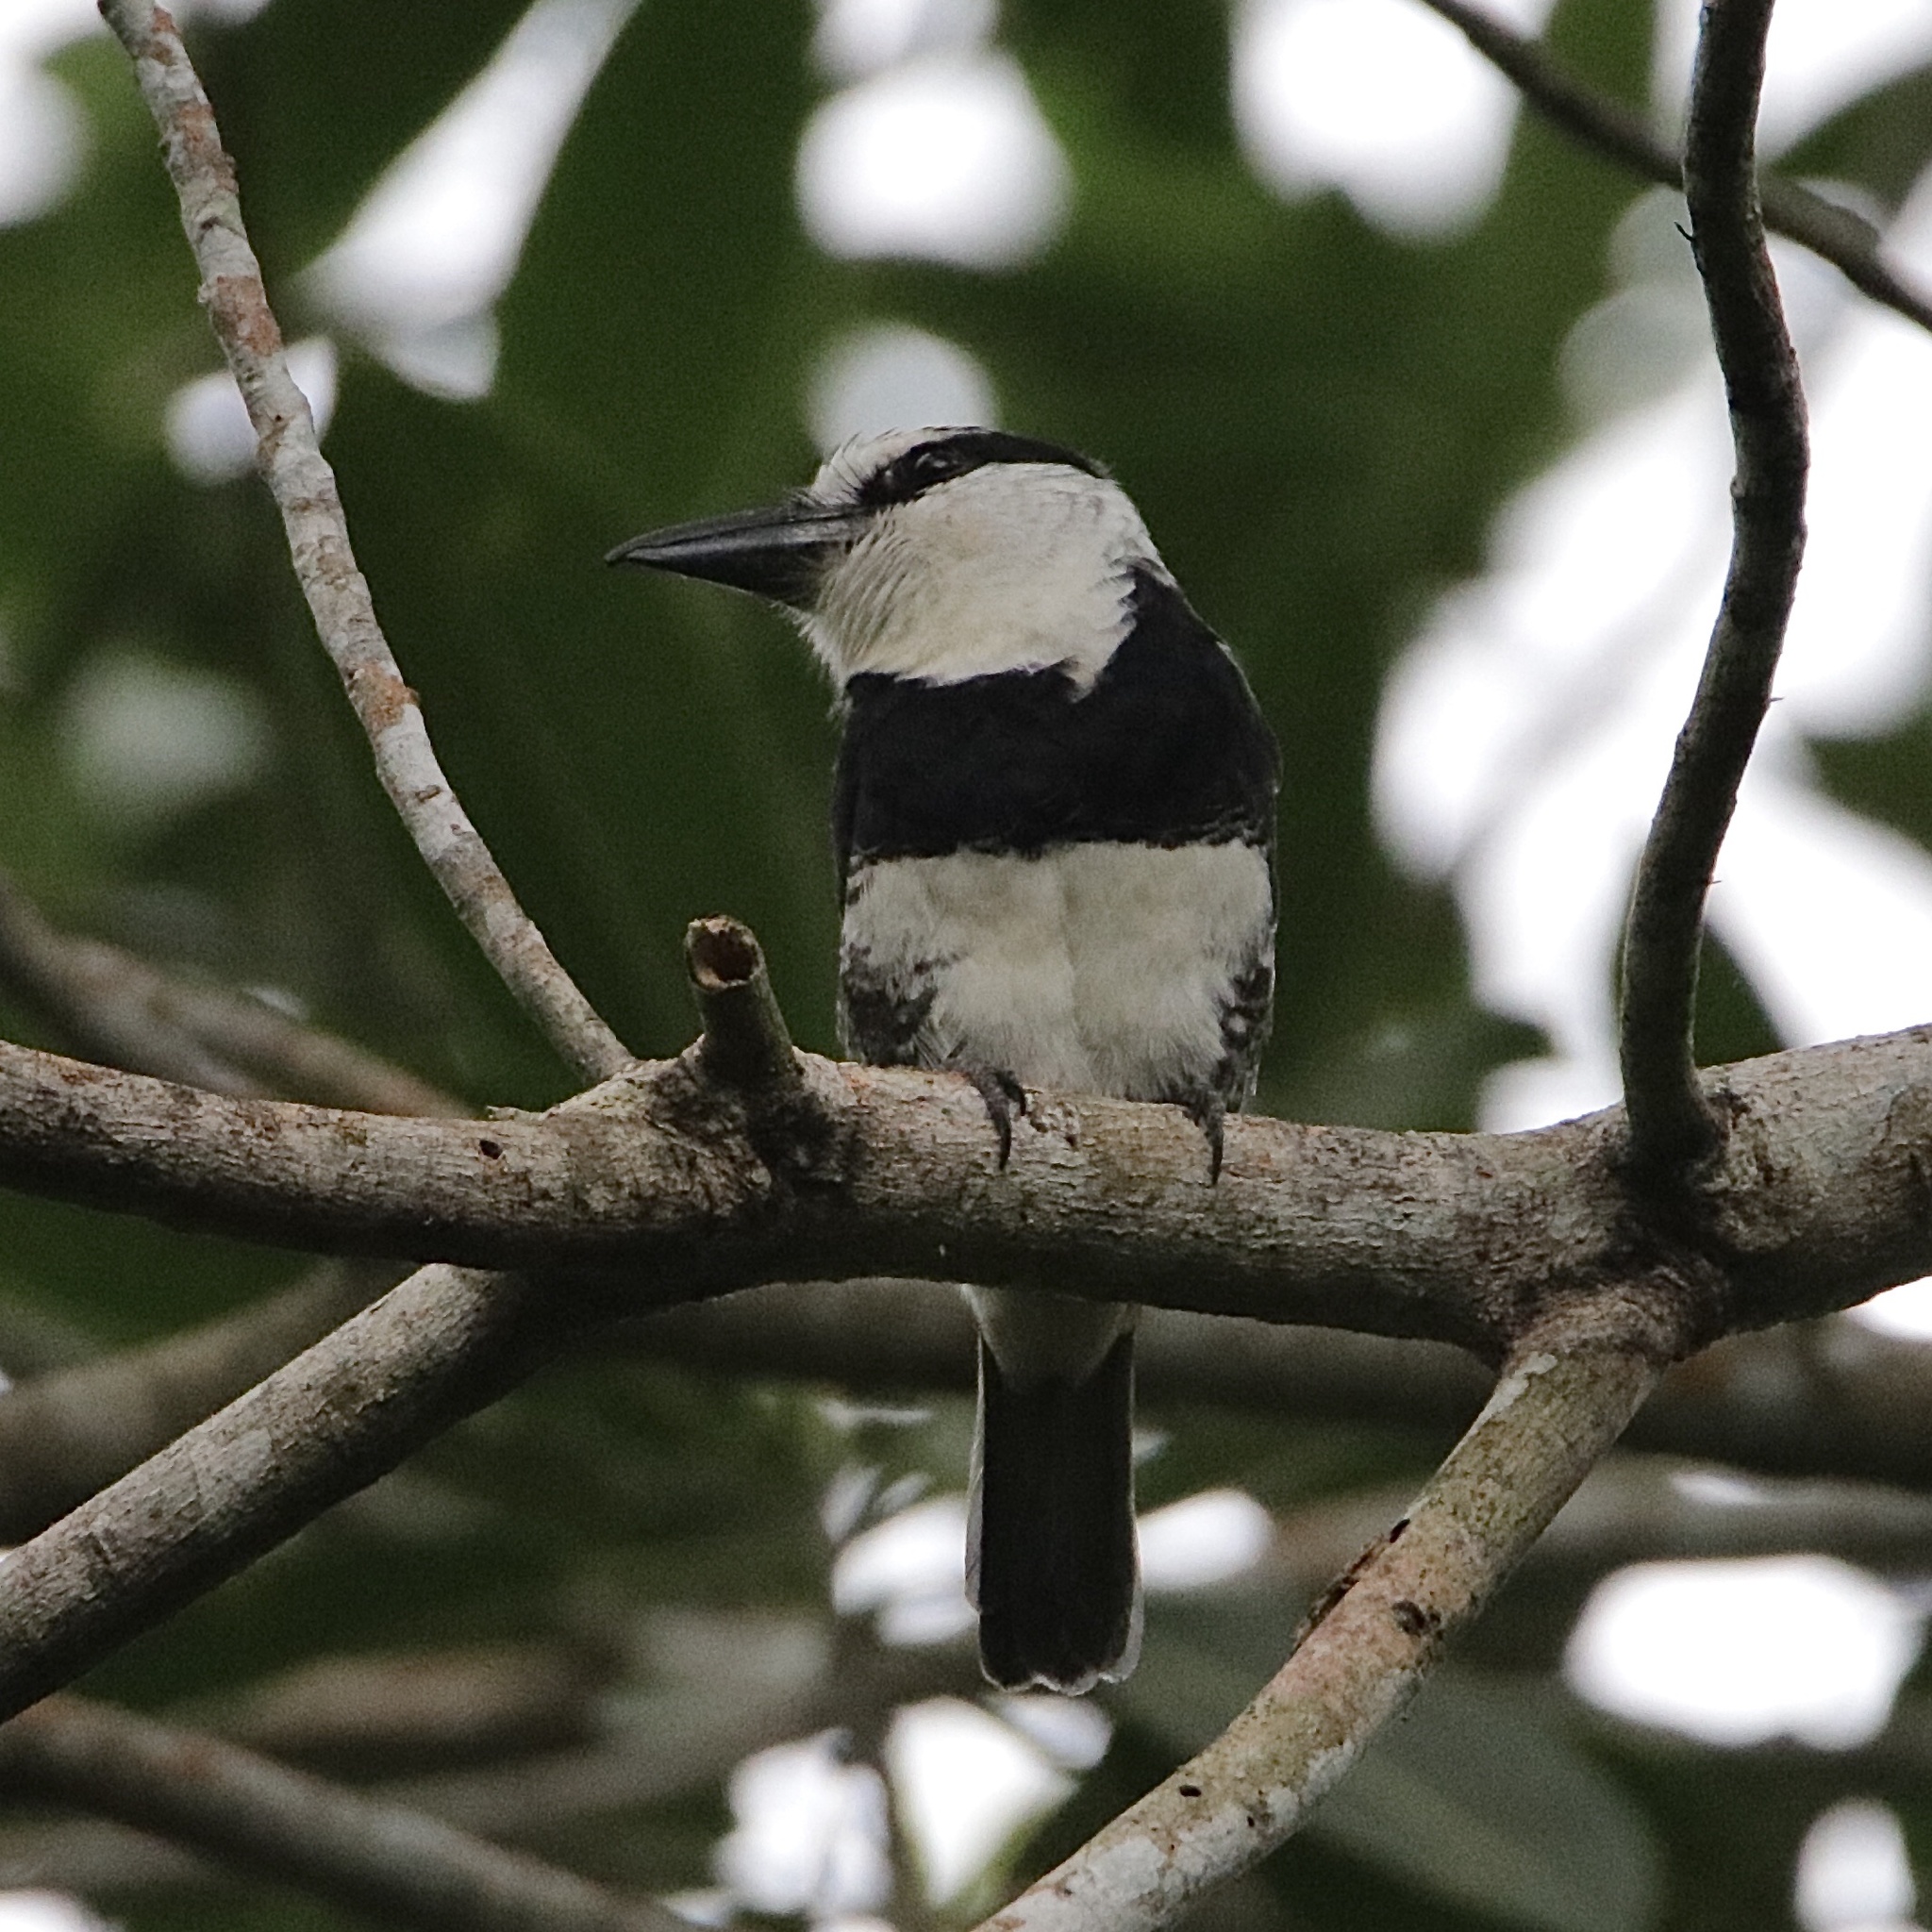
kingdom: Animalia
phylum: Chordata
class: Aves
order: Piciformes
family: Bucconidae
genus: Notharchus
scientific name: Notharchus hyperrhynchus
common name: White-necked puffbird
